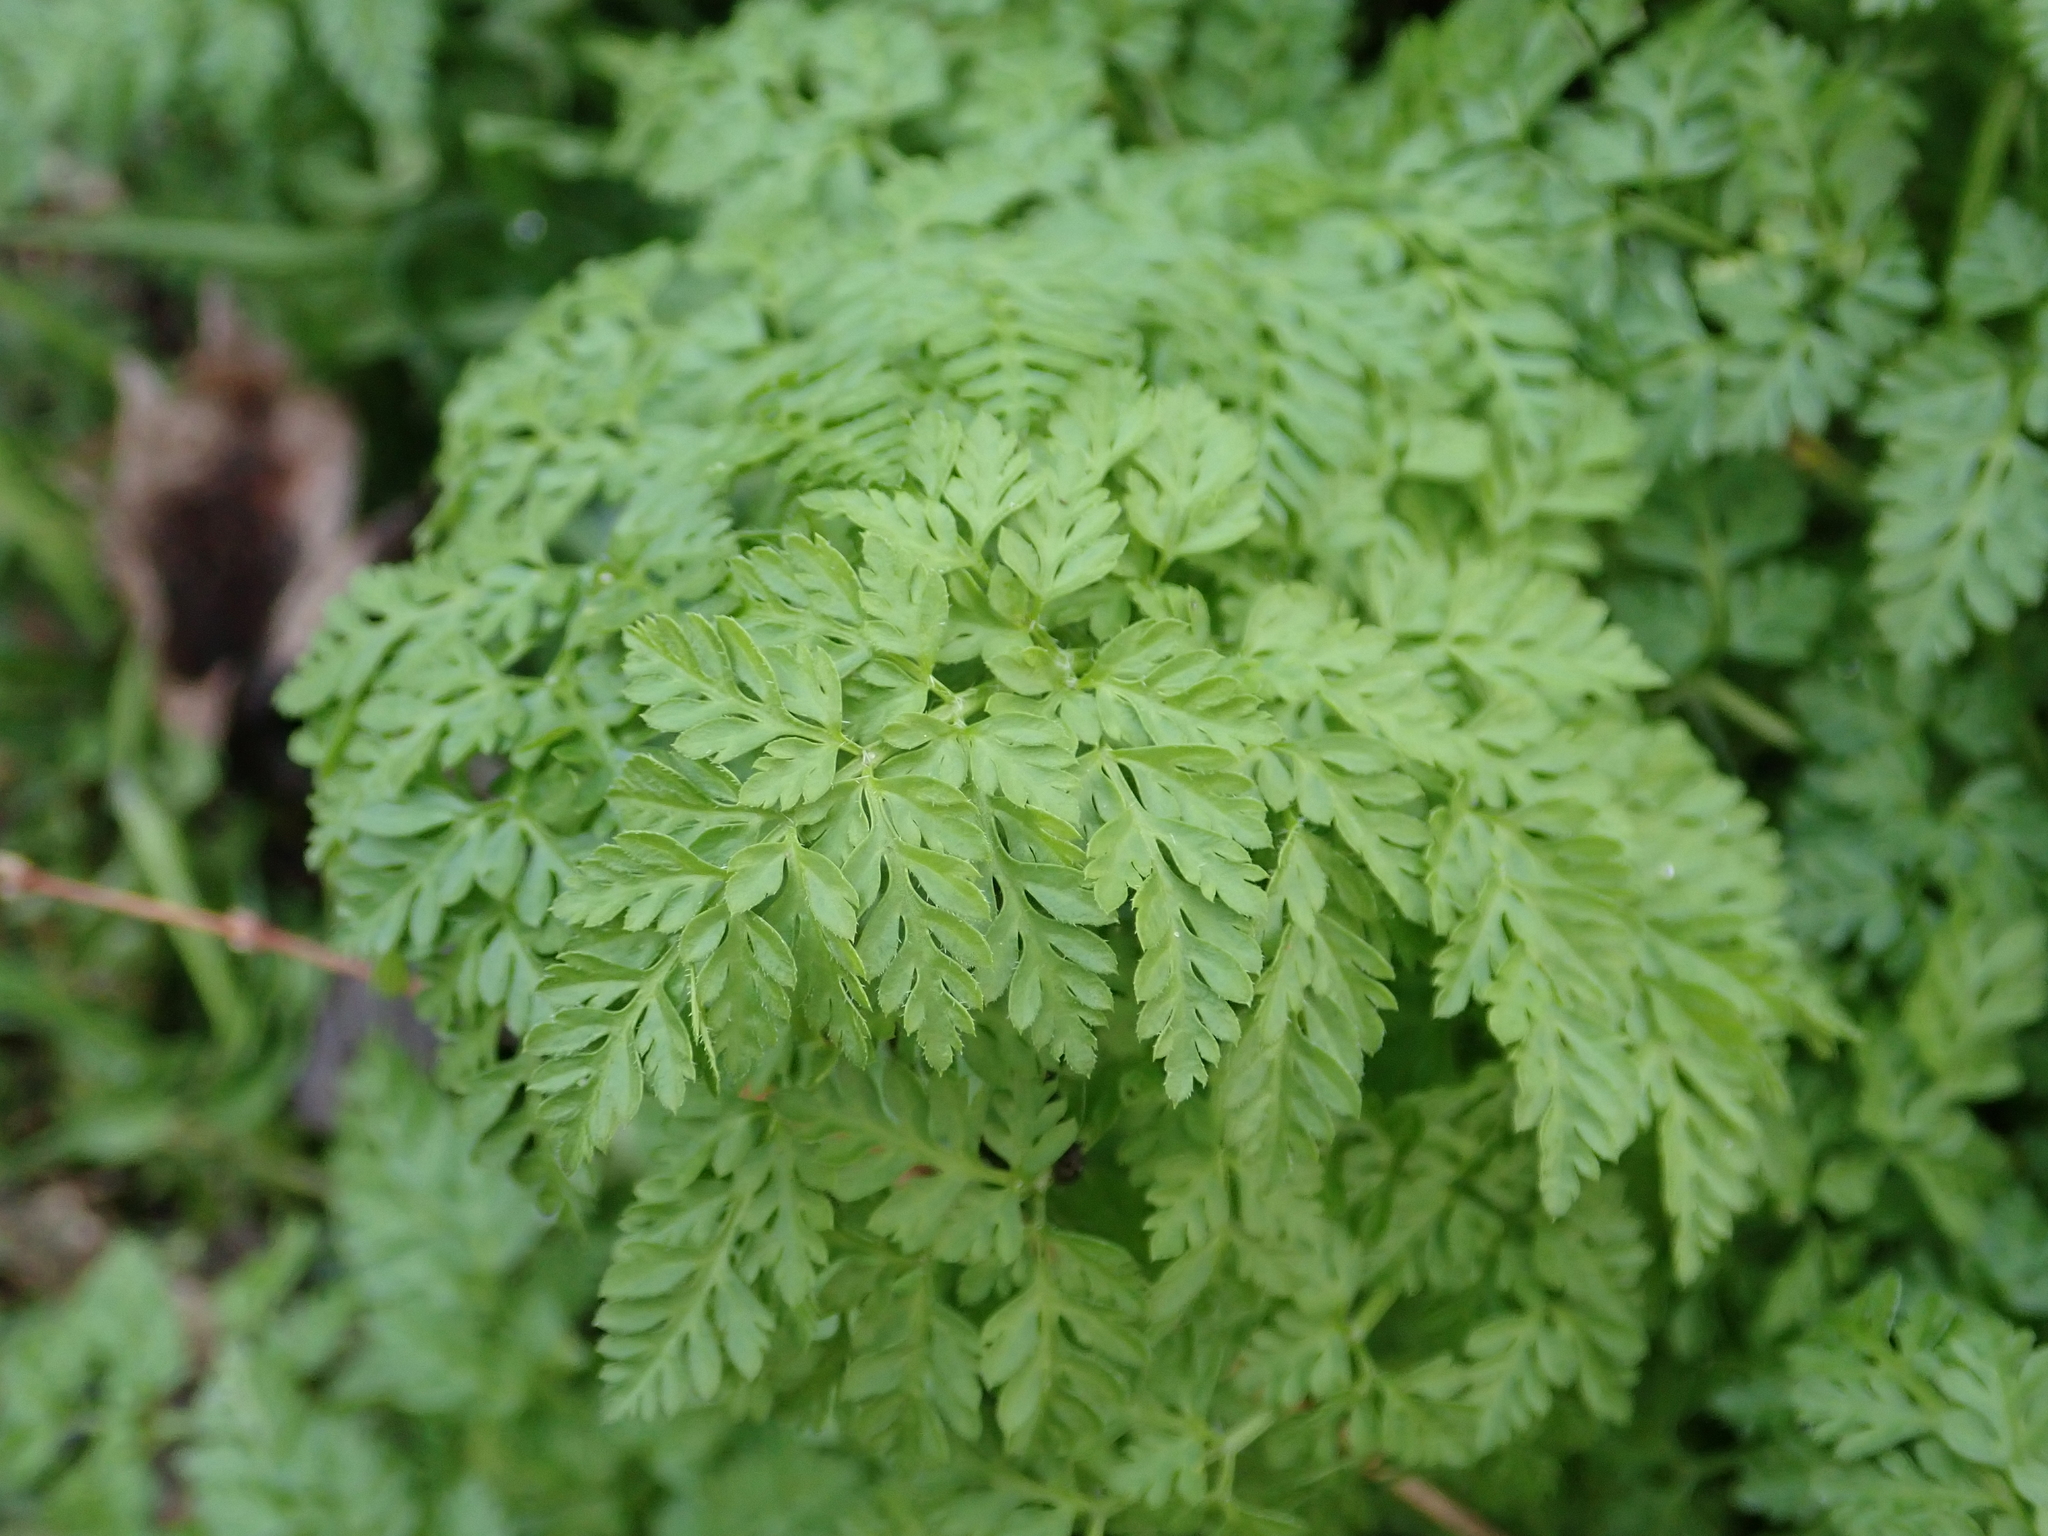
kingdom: Plantae
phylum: Tracheophyta
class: Magnoliopsida
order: Apiales
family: Apiaceae
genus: Anthriscus
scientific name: Anthriscus caucalis
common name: Bur chervil
